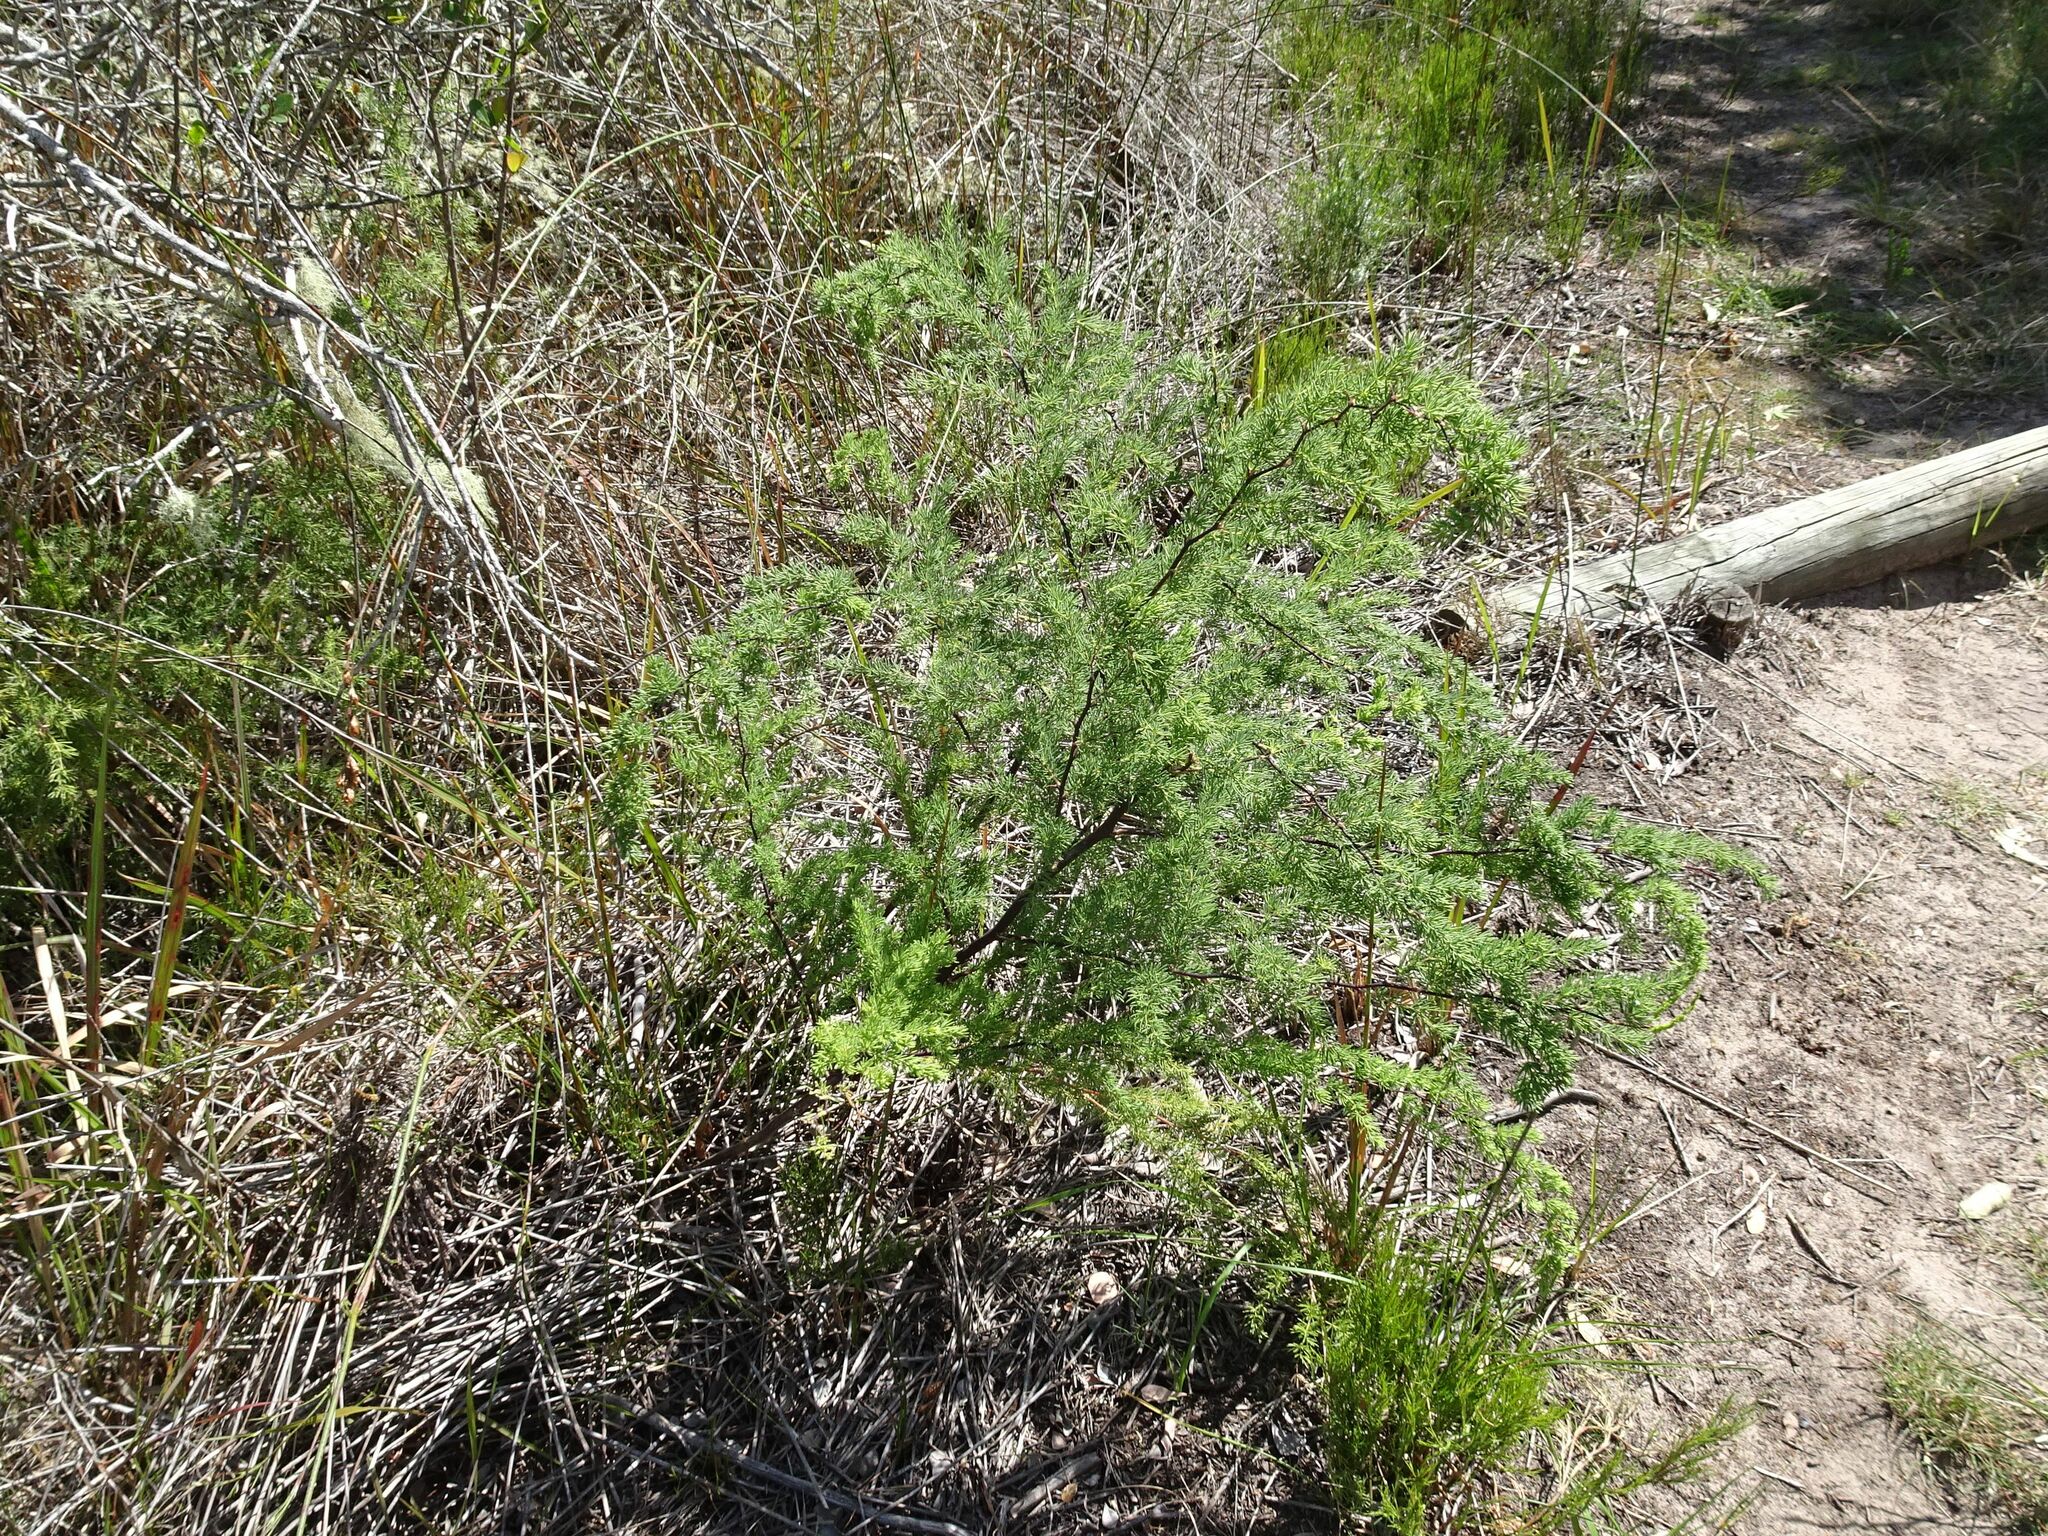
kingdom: Plantae
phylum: Tracheophyta
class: Liliopsida
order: Asparagales
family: Asparagaceae
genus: Asparagus
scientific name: Asparagus rubicundus
